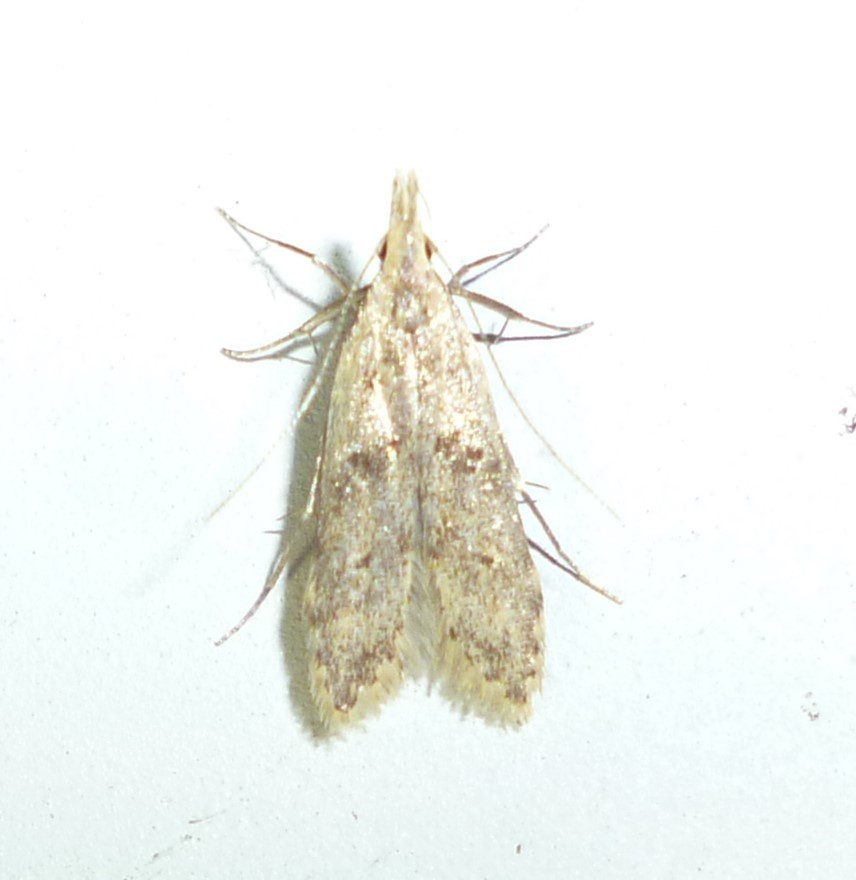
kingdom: Animalia
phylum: Arthropoda
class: Insecta
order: Lepidoptera
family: Gelechiidae
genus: Dichomeris
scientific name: Dichomeris punctipennella
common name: Many-spotted dichomeris moth
